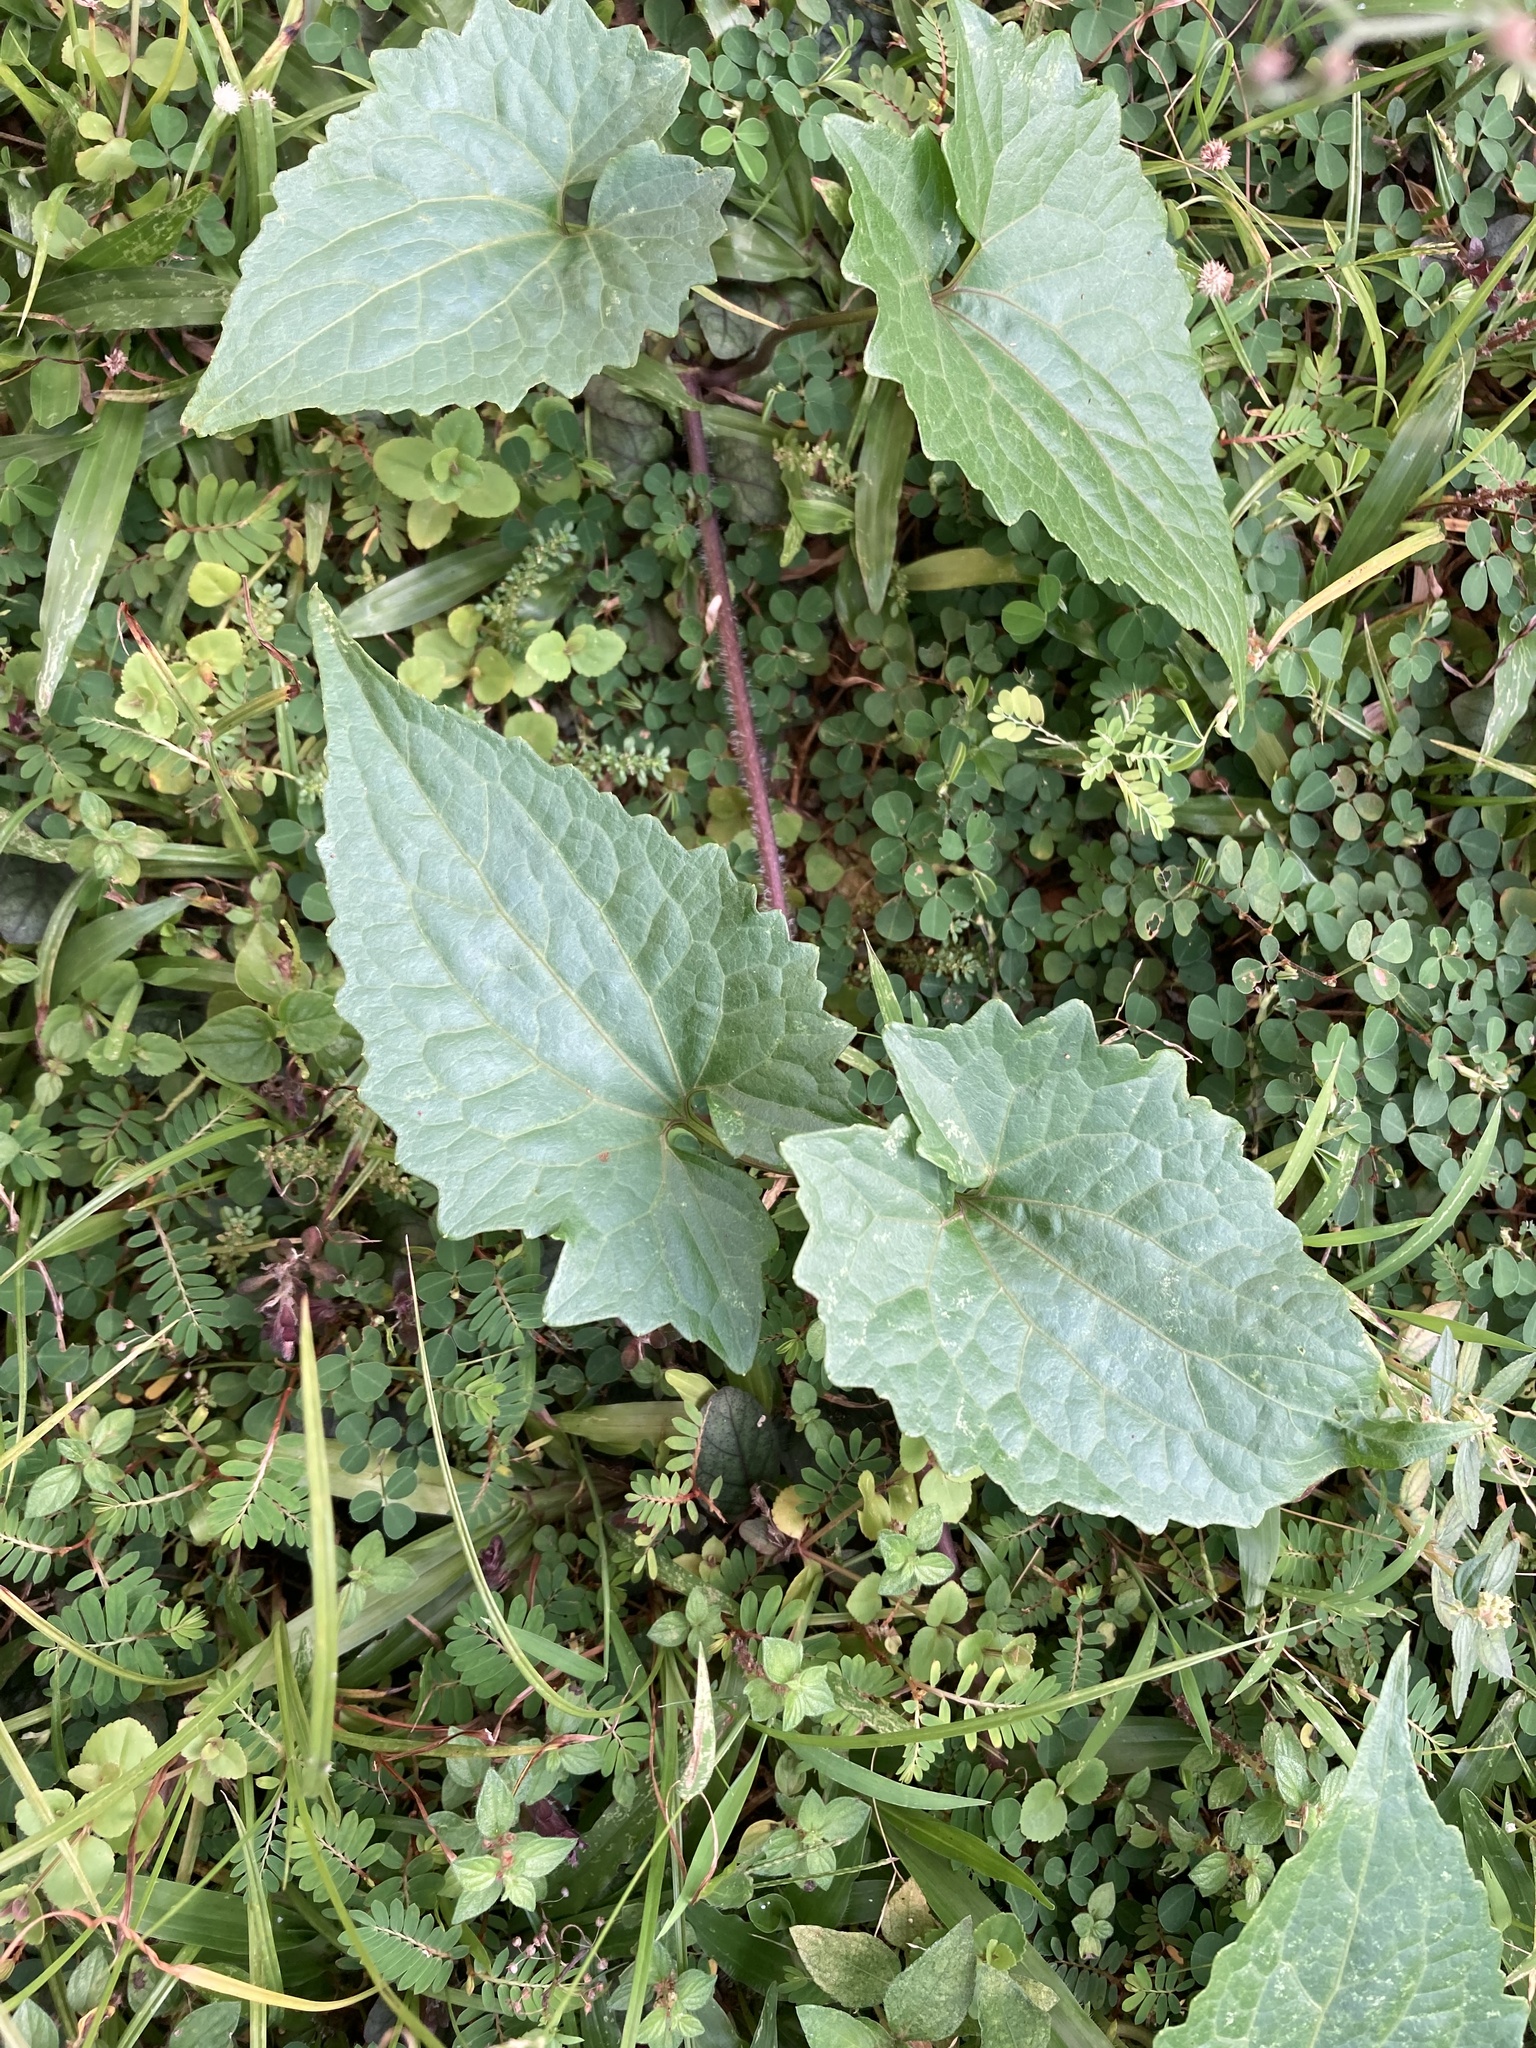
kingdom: Plantae
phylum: Tracheophyta
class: Magnoliopsida
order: Asterales
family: Asteraceae
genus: Mikania
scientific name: Mikania micrantha
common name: Mile-a-minute
